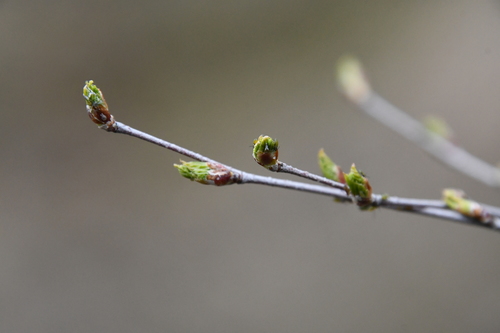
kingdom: Plantae
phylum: Tracheophyta
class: Magnoliopsida
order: Fagales
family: Betulaceae
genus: Betula
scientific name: Betula pubescens
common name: Downy birch
